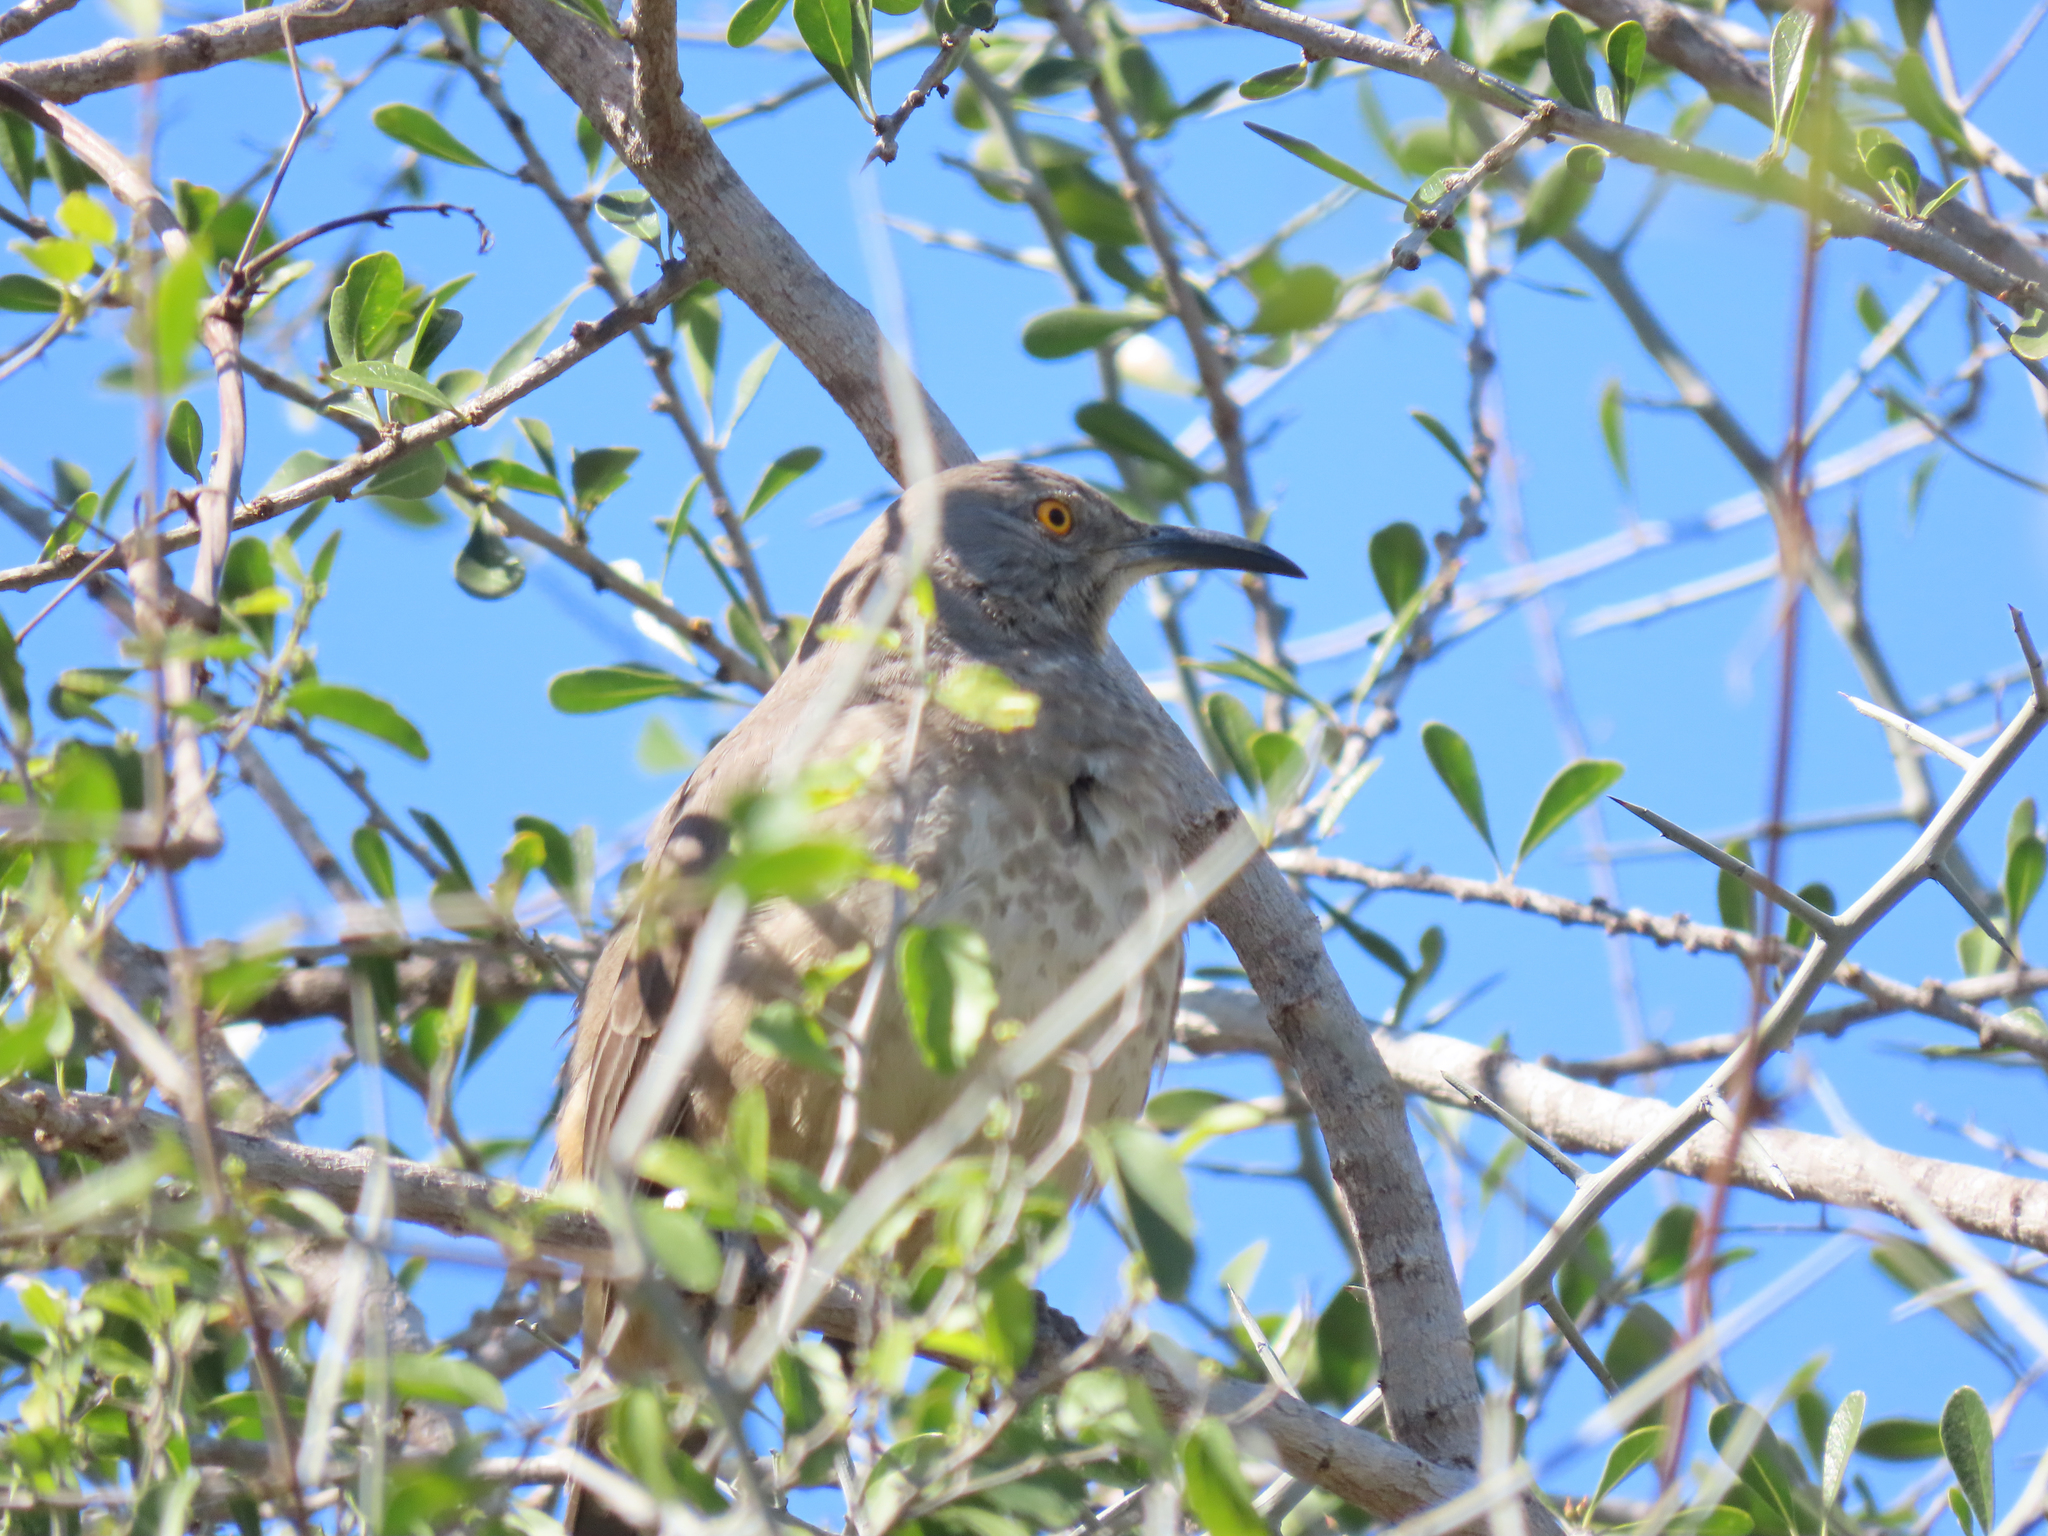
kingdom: Animalia
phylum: Chordata
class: Aves
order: Passeriformes
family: Mimidae
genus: Toxostoma
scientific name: Toxostoma curvirostre
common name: Curve-billed thrasher
